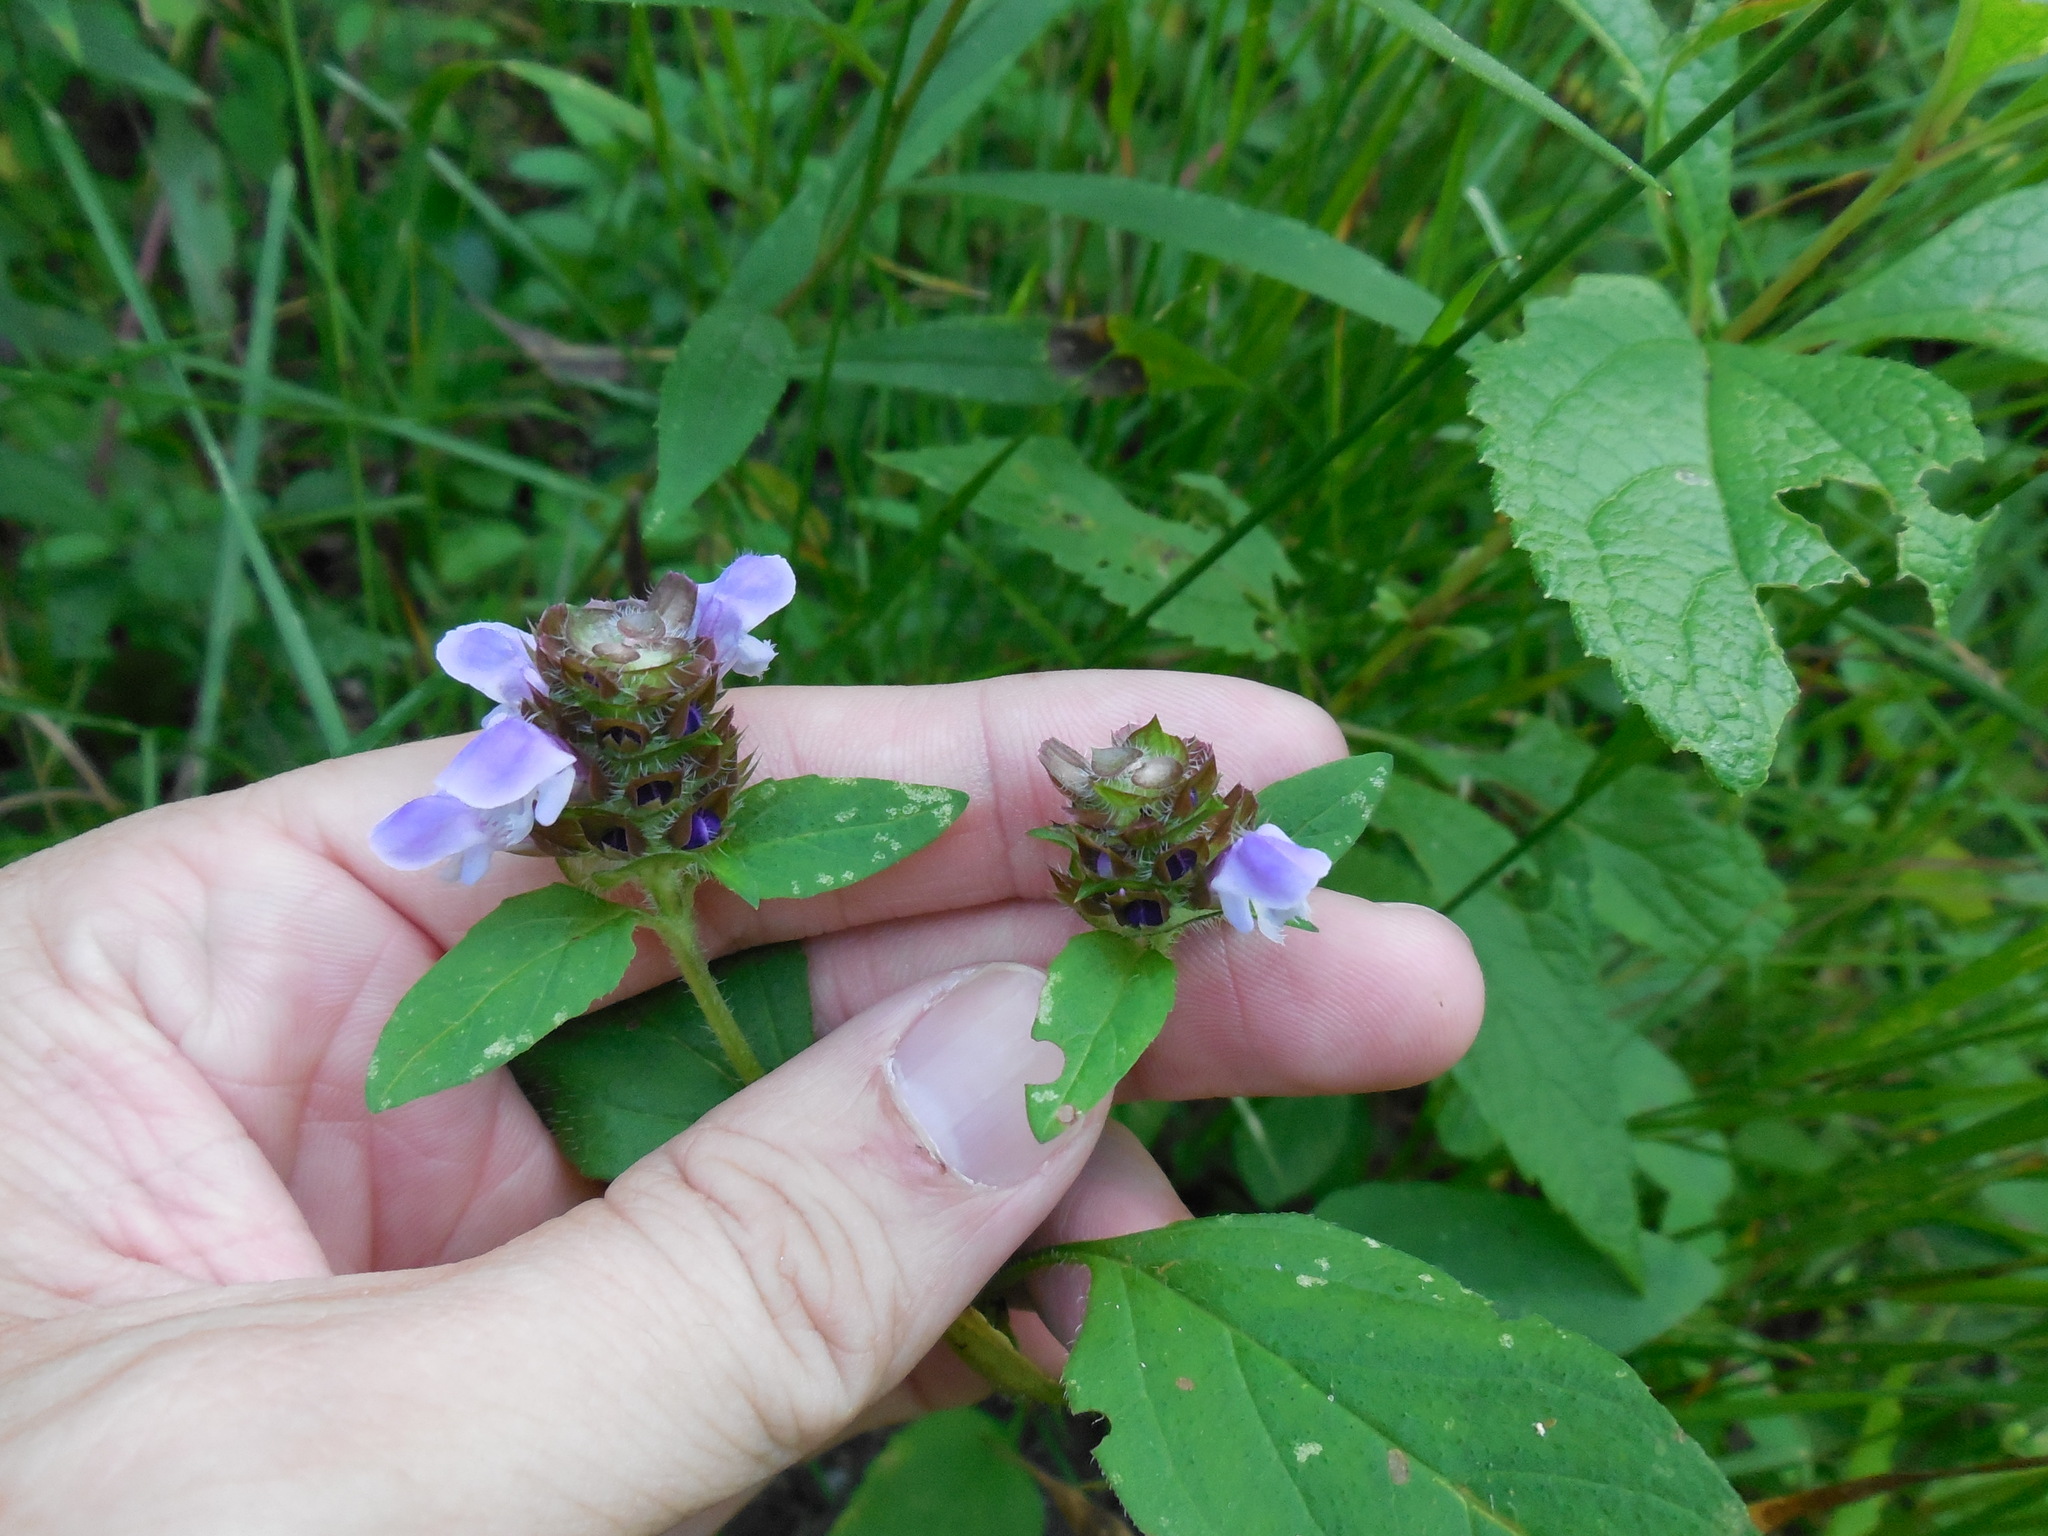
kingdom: Plantae
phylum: Tracheophyta
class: Magnoliopsida
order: Lamiales
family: Lamiaceae
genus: Prunella
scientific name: Prunella vulgaris
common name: Heal-all
